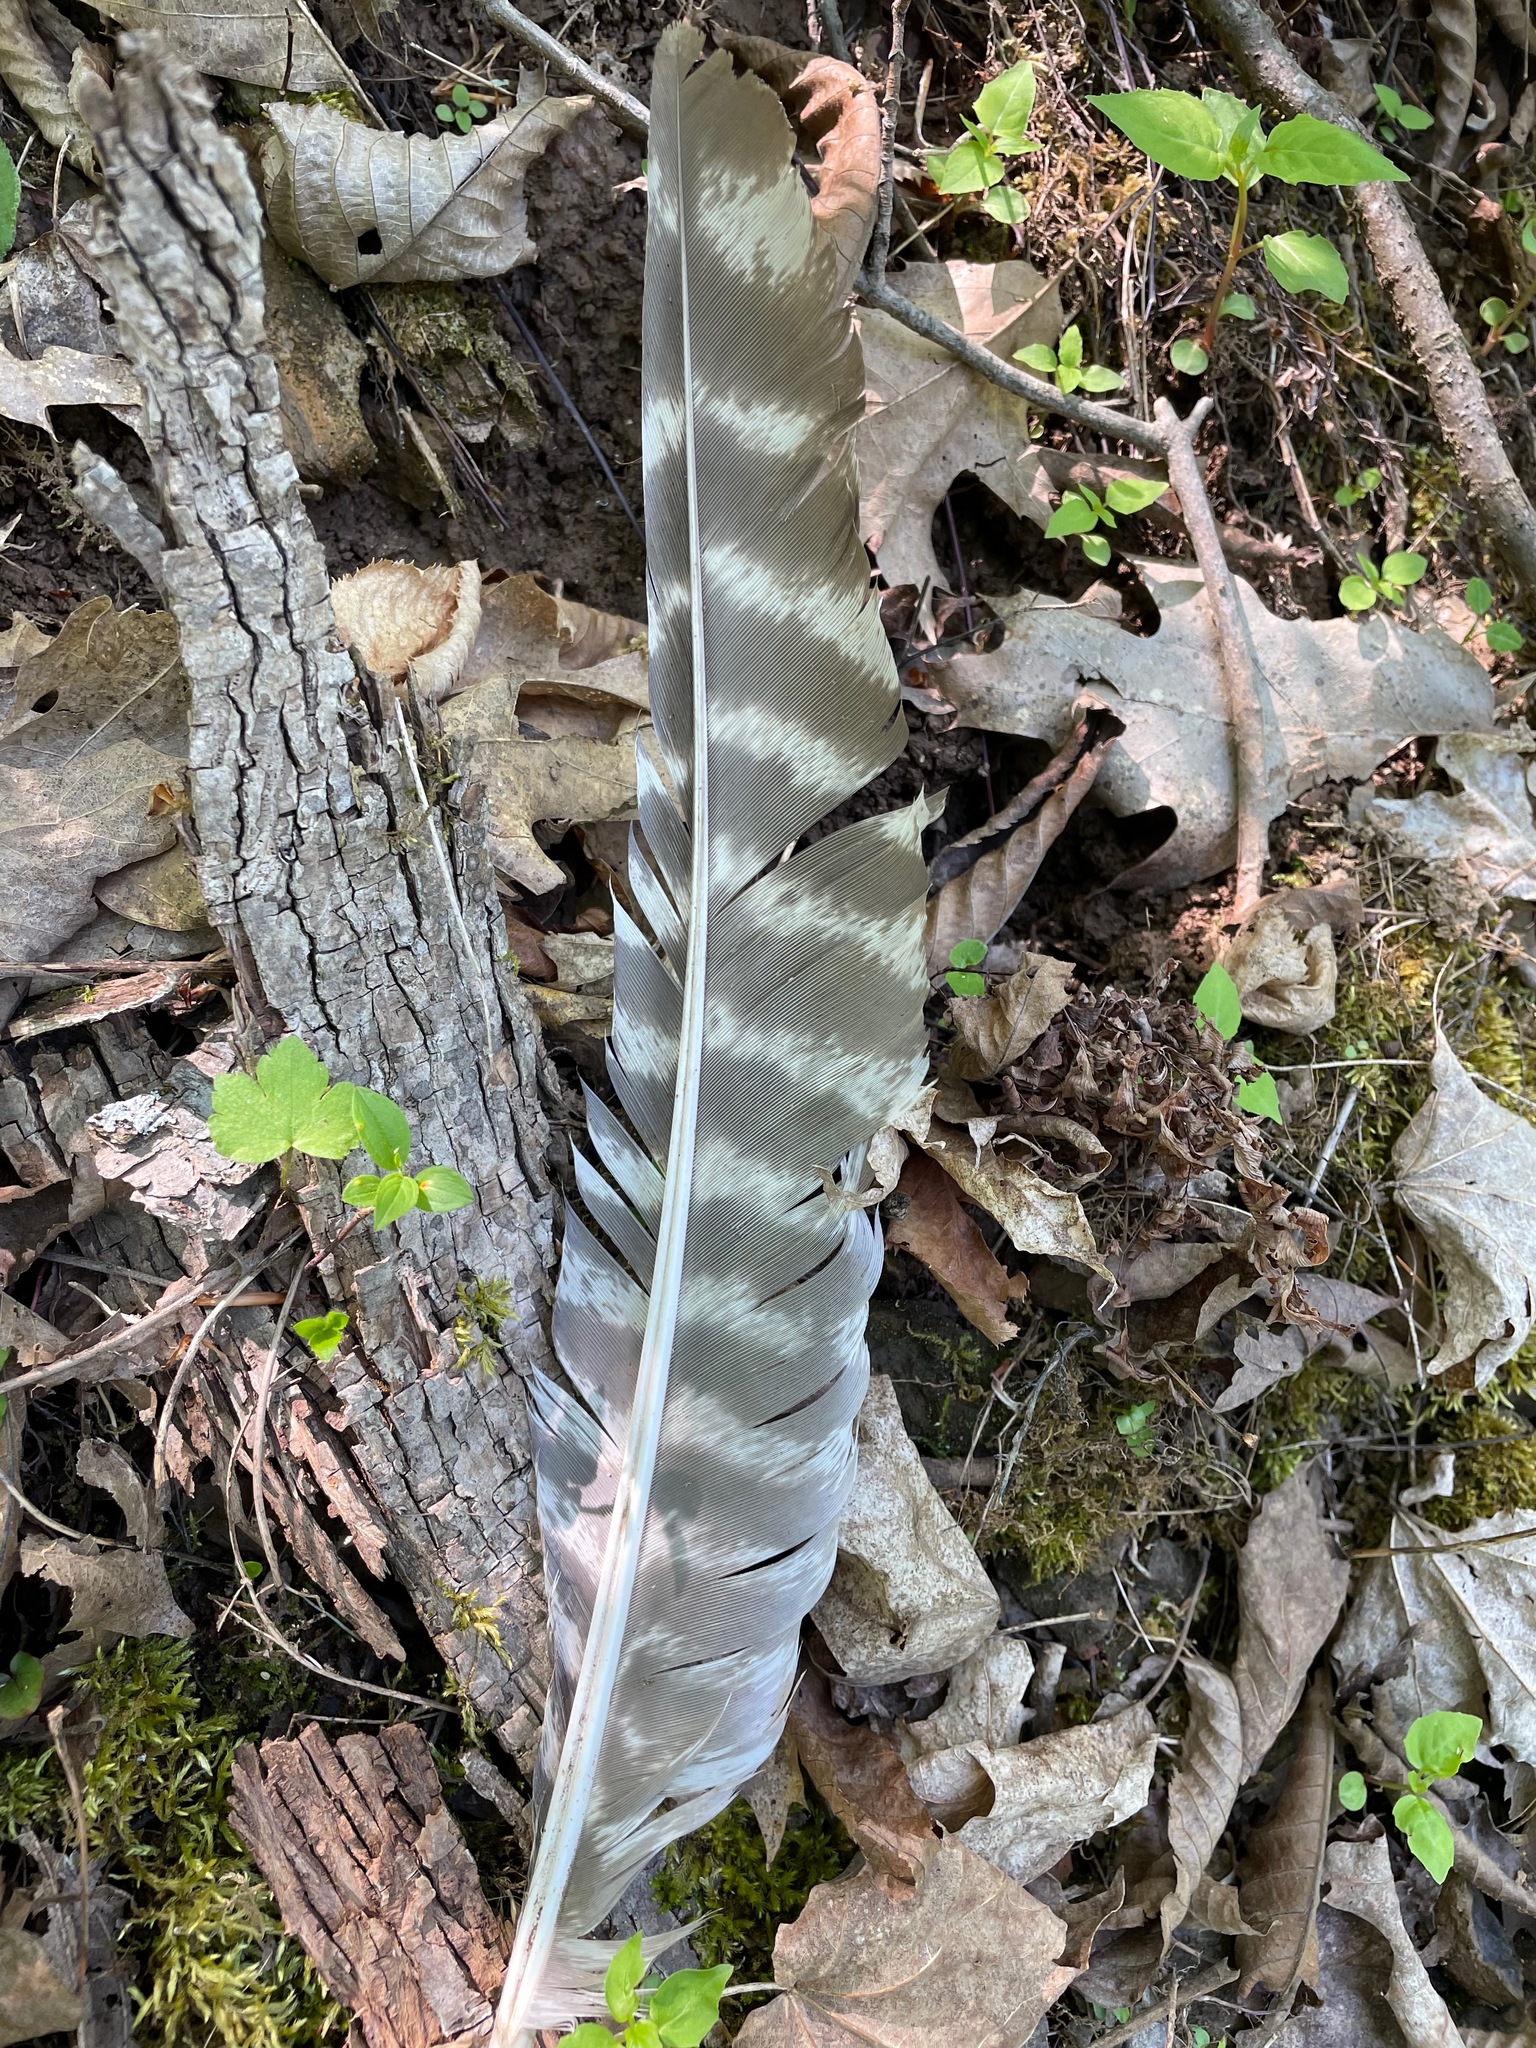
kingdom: Animalia
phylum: Chordata
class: Aves
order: Galliformes
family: Phasianidae
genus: Meleagris
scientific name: Meleagris gallopavo
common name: Wild turkey
